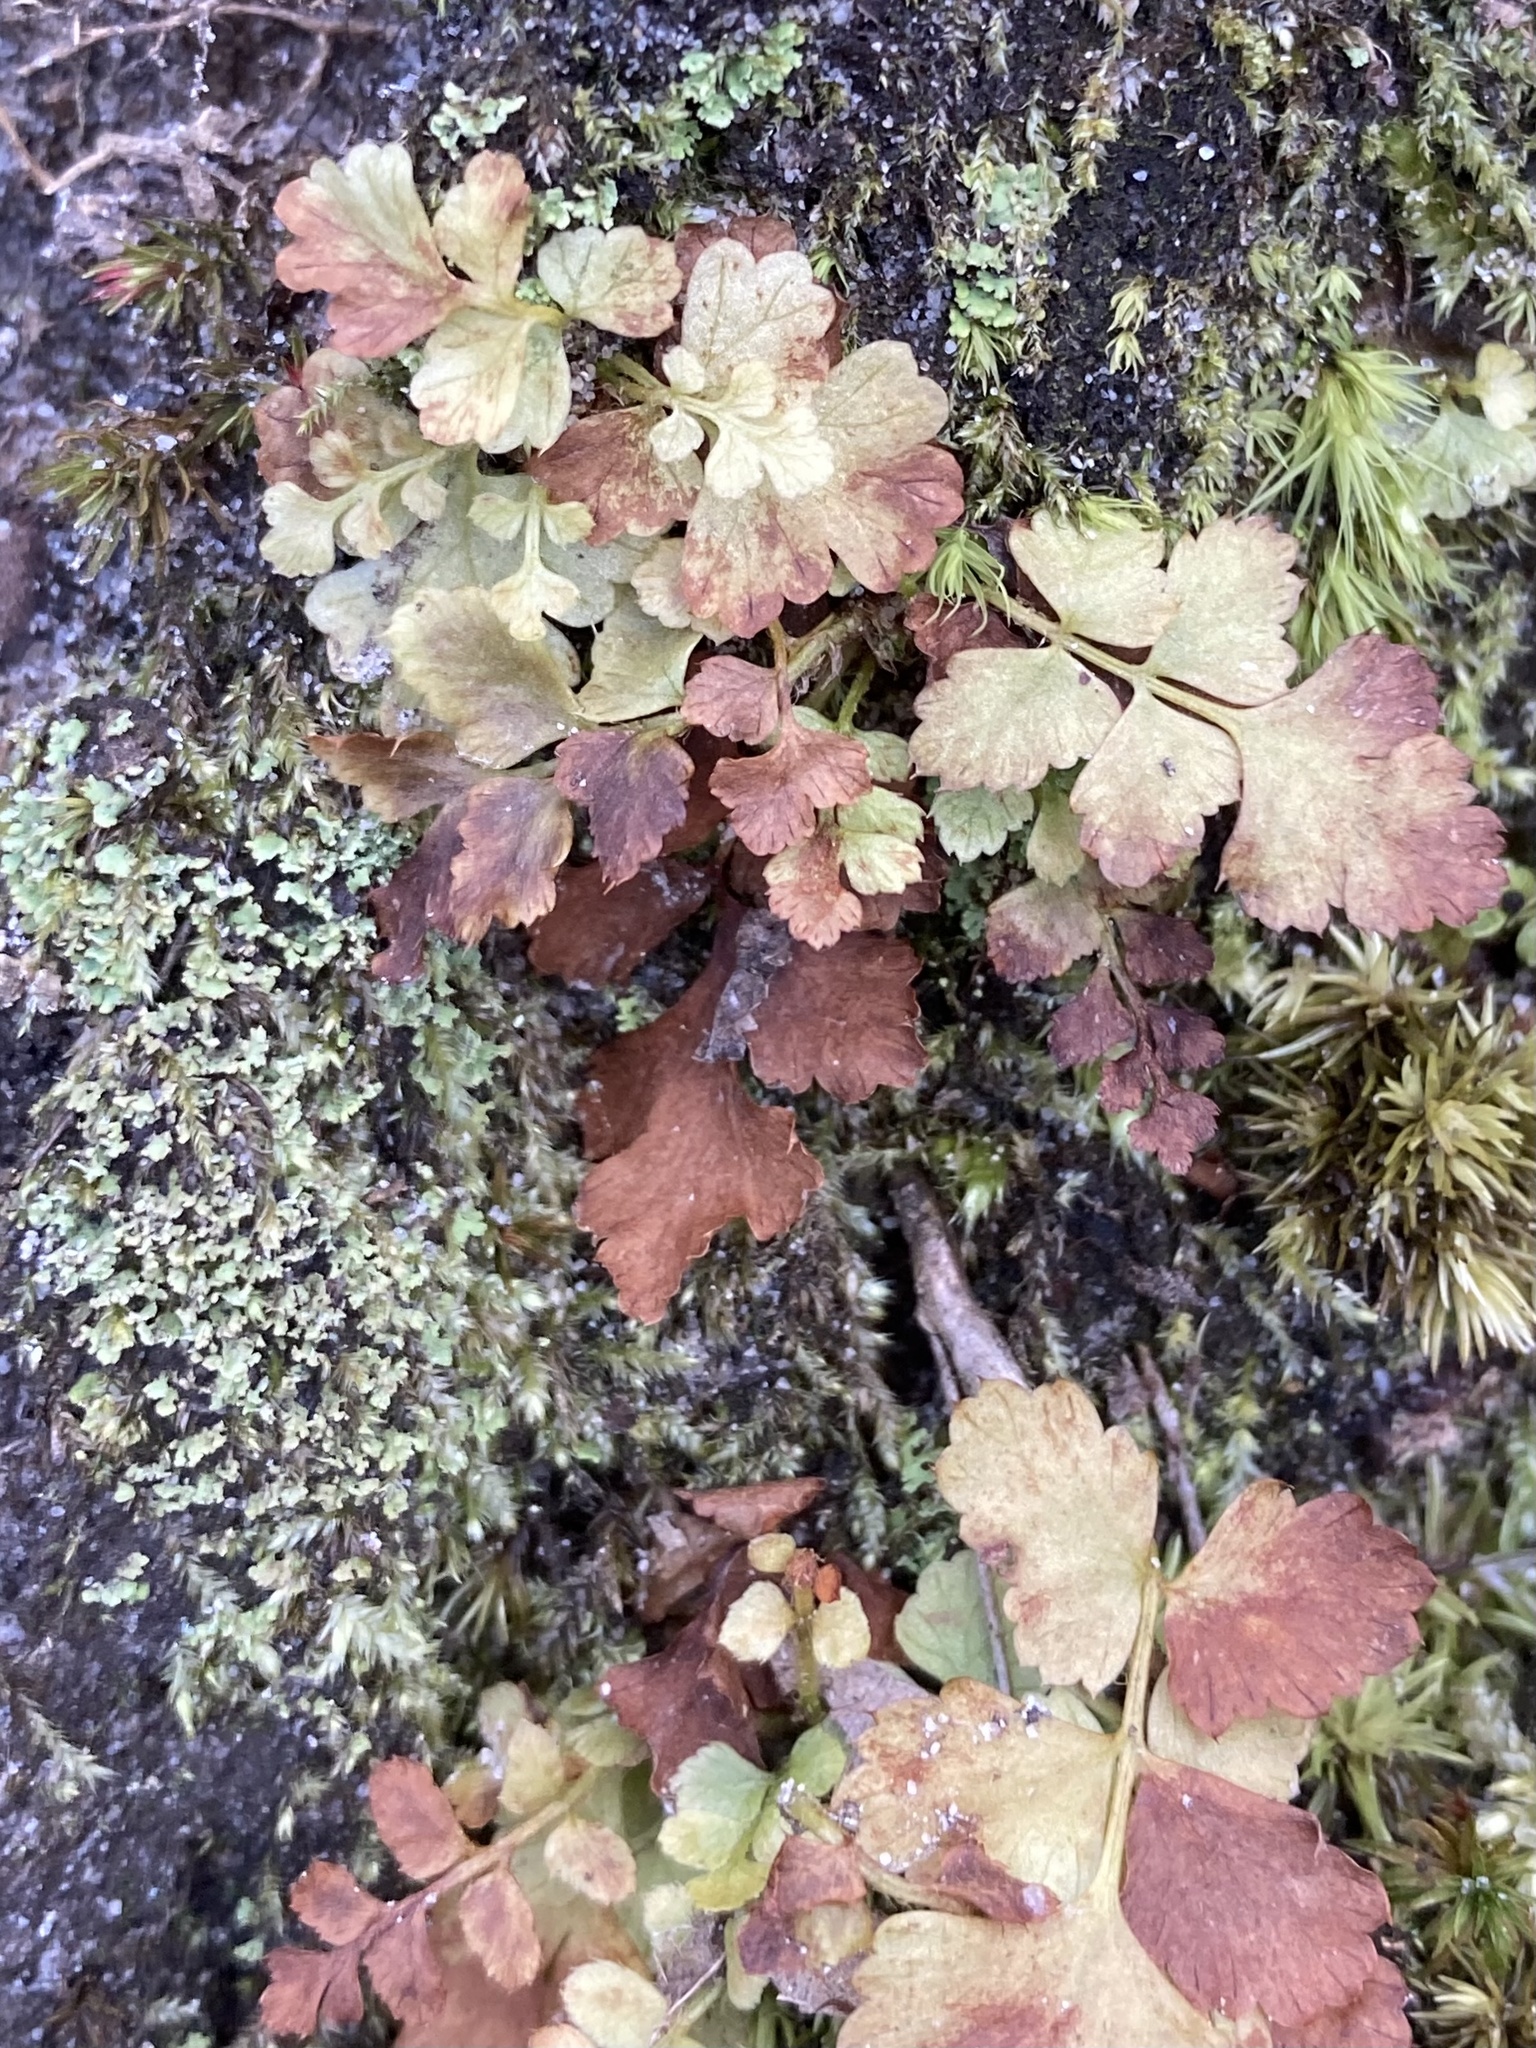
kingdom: Plantae
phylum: Tracheophyta
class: Polypodiopsida
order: Polypodiales
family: Dryopteridaceae
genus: Polystichum
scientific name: Polystichum acrostichoides
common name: Christmas fern
